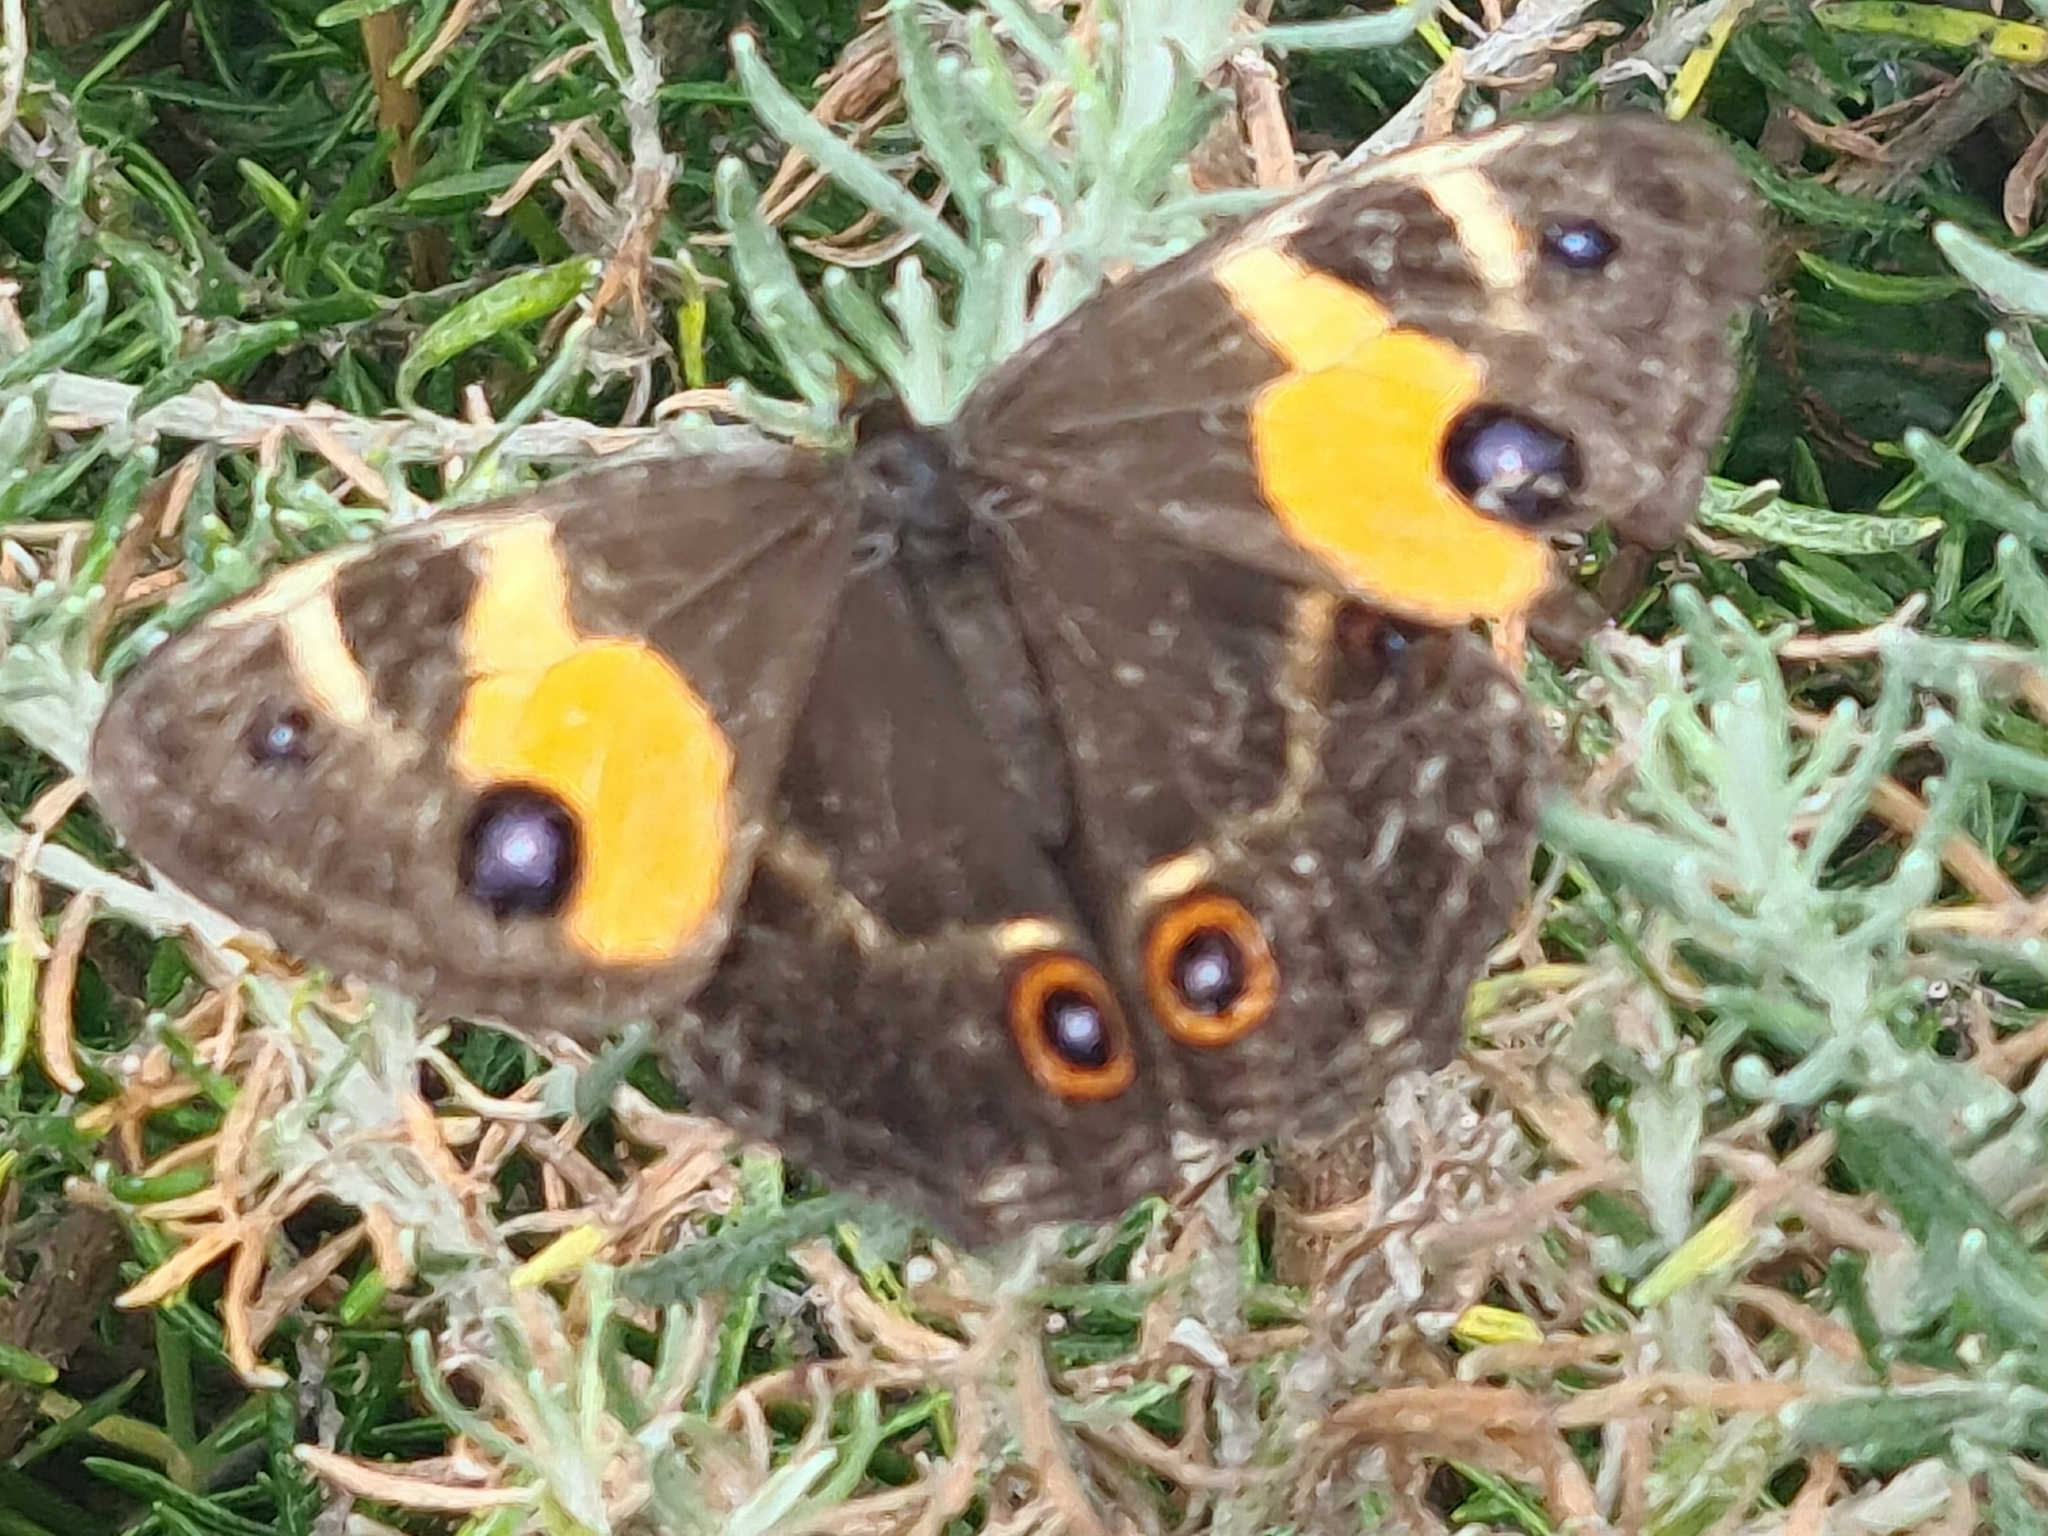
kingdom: Animalia
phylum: Arthropoda
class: Insecta
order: Lepidoptera
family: Nymphalidae
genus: Tisiphone
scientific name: Tisiphone abeona
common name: Swordgrass brown
